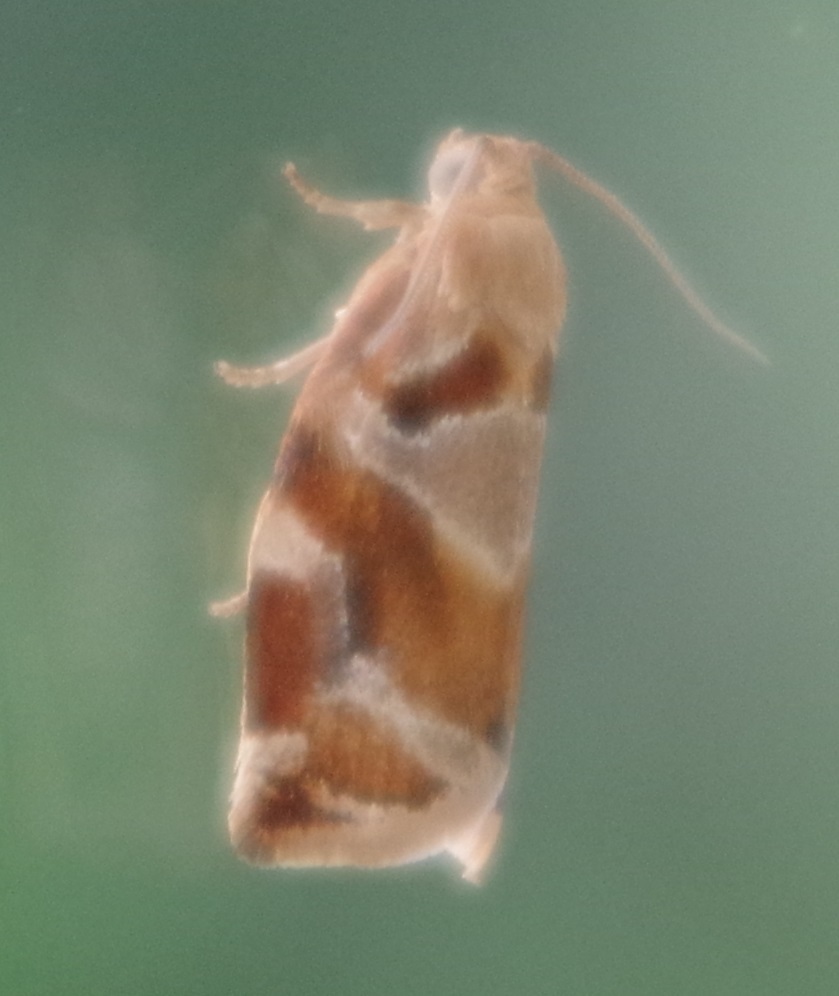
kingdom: Animalia
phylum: Arthropoda
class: Insecta
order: Lepidoptera
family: Tortricidae
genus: Archips
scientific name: Archips podana
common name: Large fruit-tree tortrix
